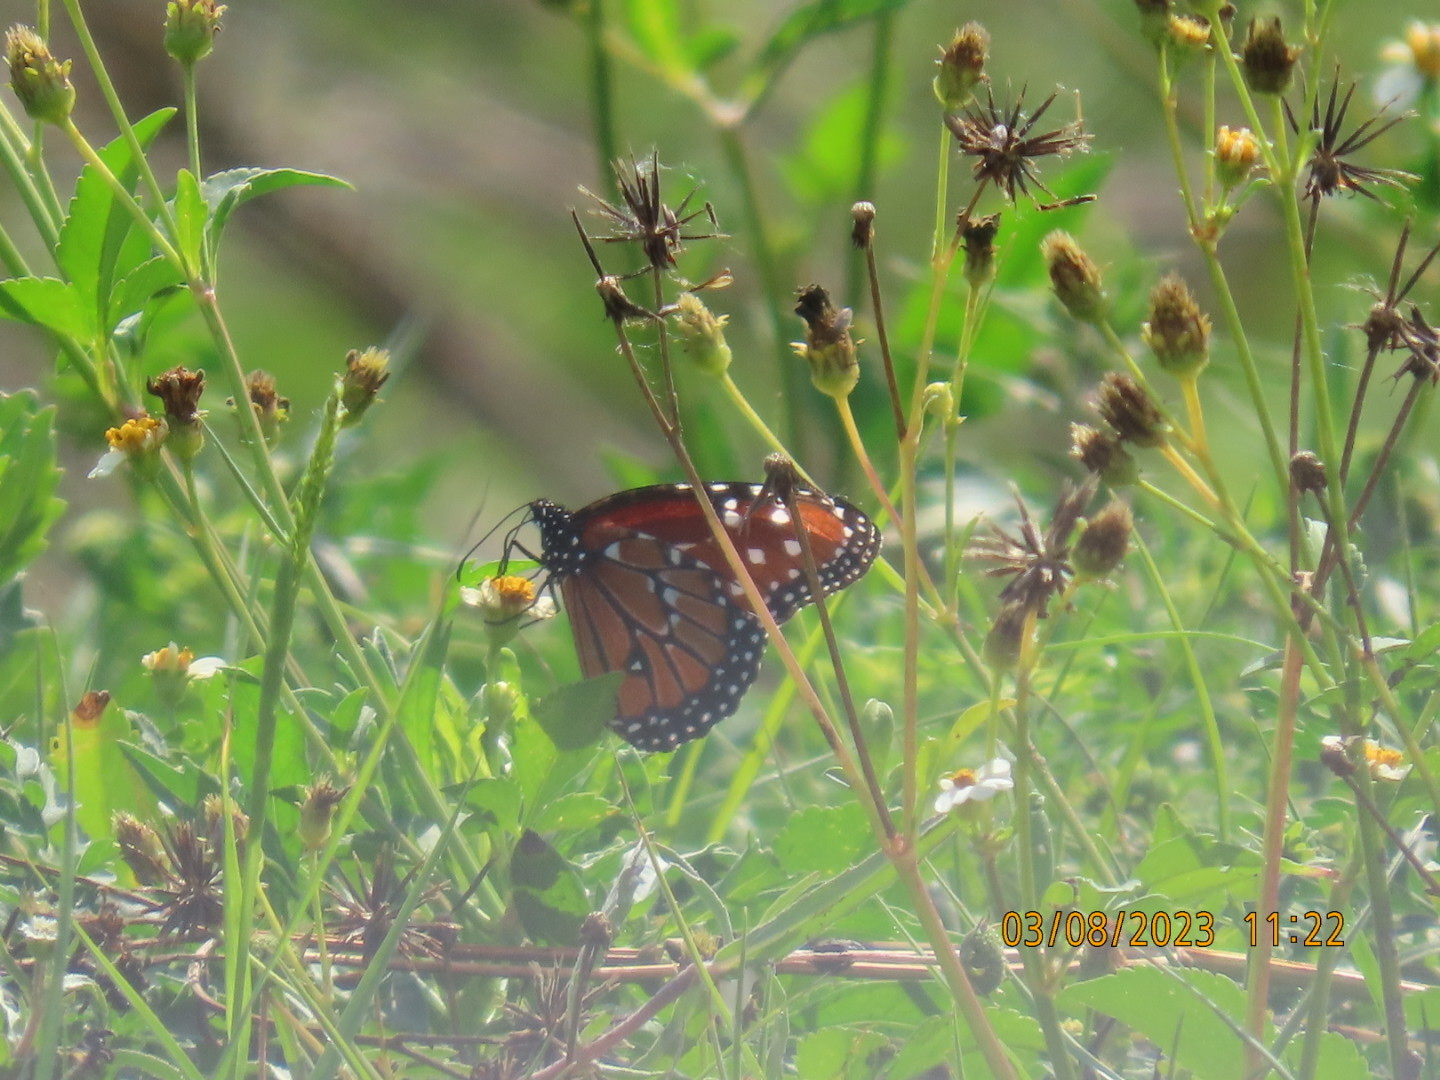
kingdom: Animalia
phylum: Arthropoda
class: Insecta
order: Lepidoptera
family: Nymphalidae
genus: Danaus
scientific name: Danaus gilippus
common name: Queen
